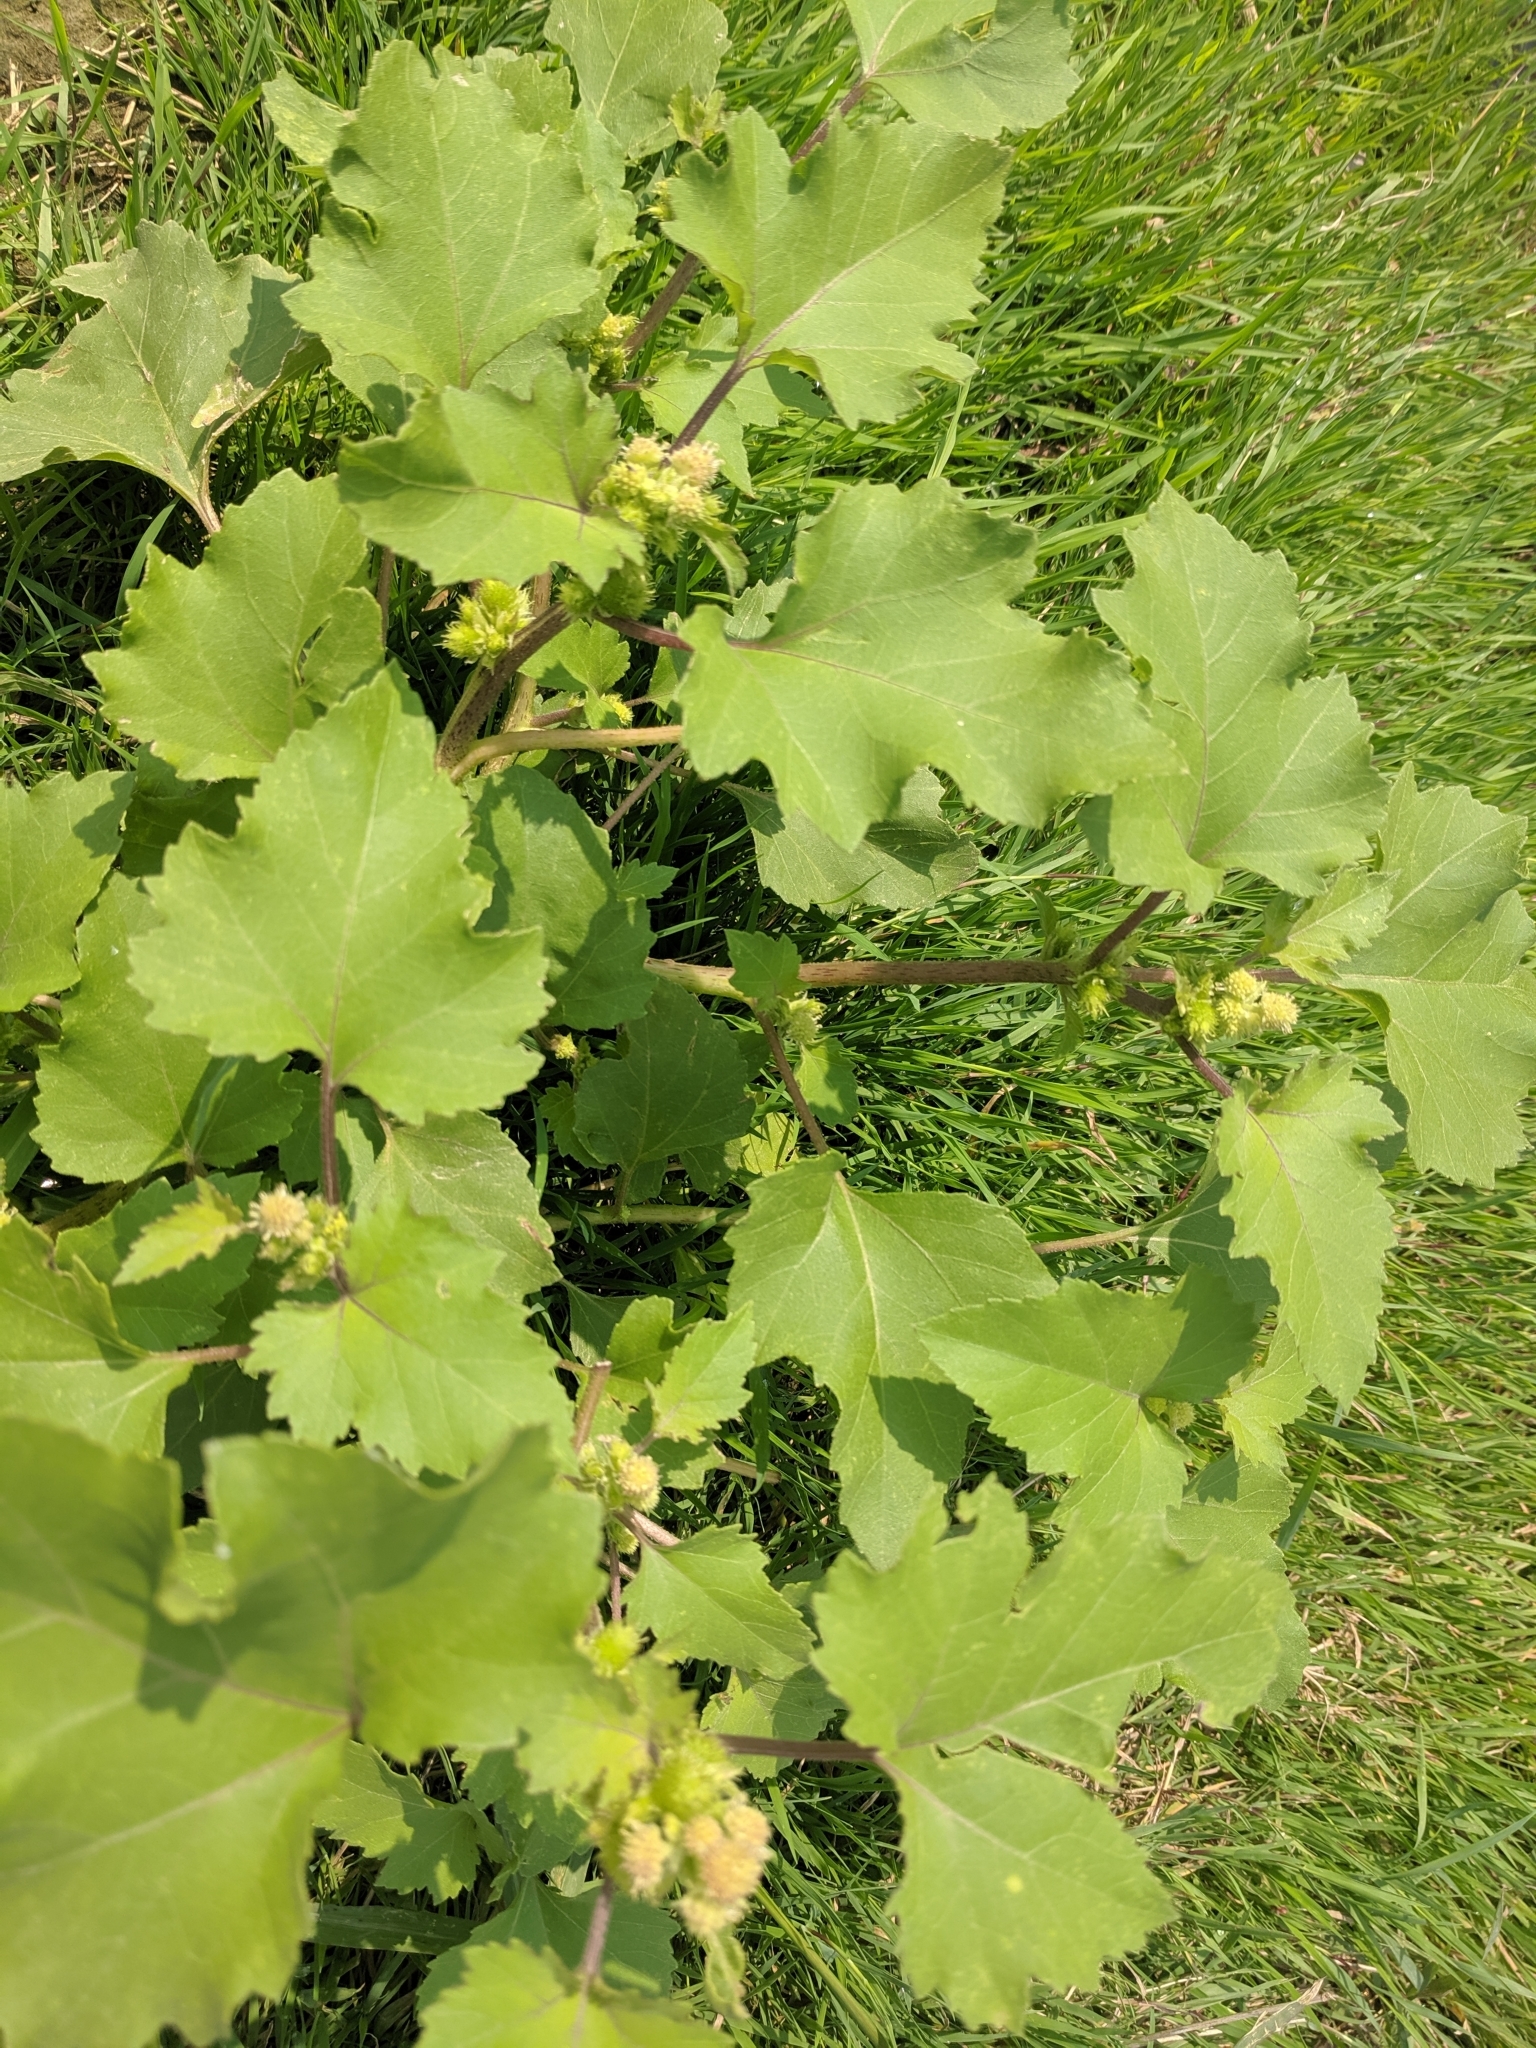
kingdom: Plantae
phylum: Tracheophyta
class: Magnoliopsida
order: Asterales
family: Asteraceae
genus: Xanthium
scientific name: Xanthium strumarium
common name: Rough cocklebur
